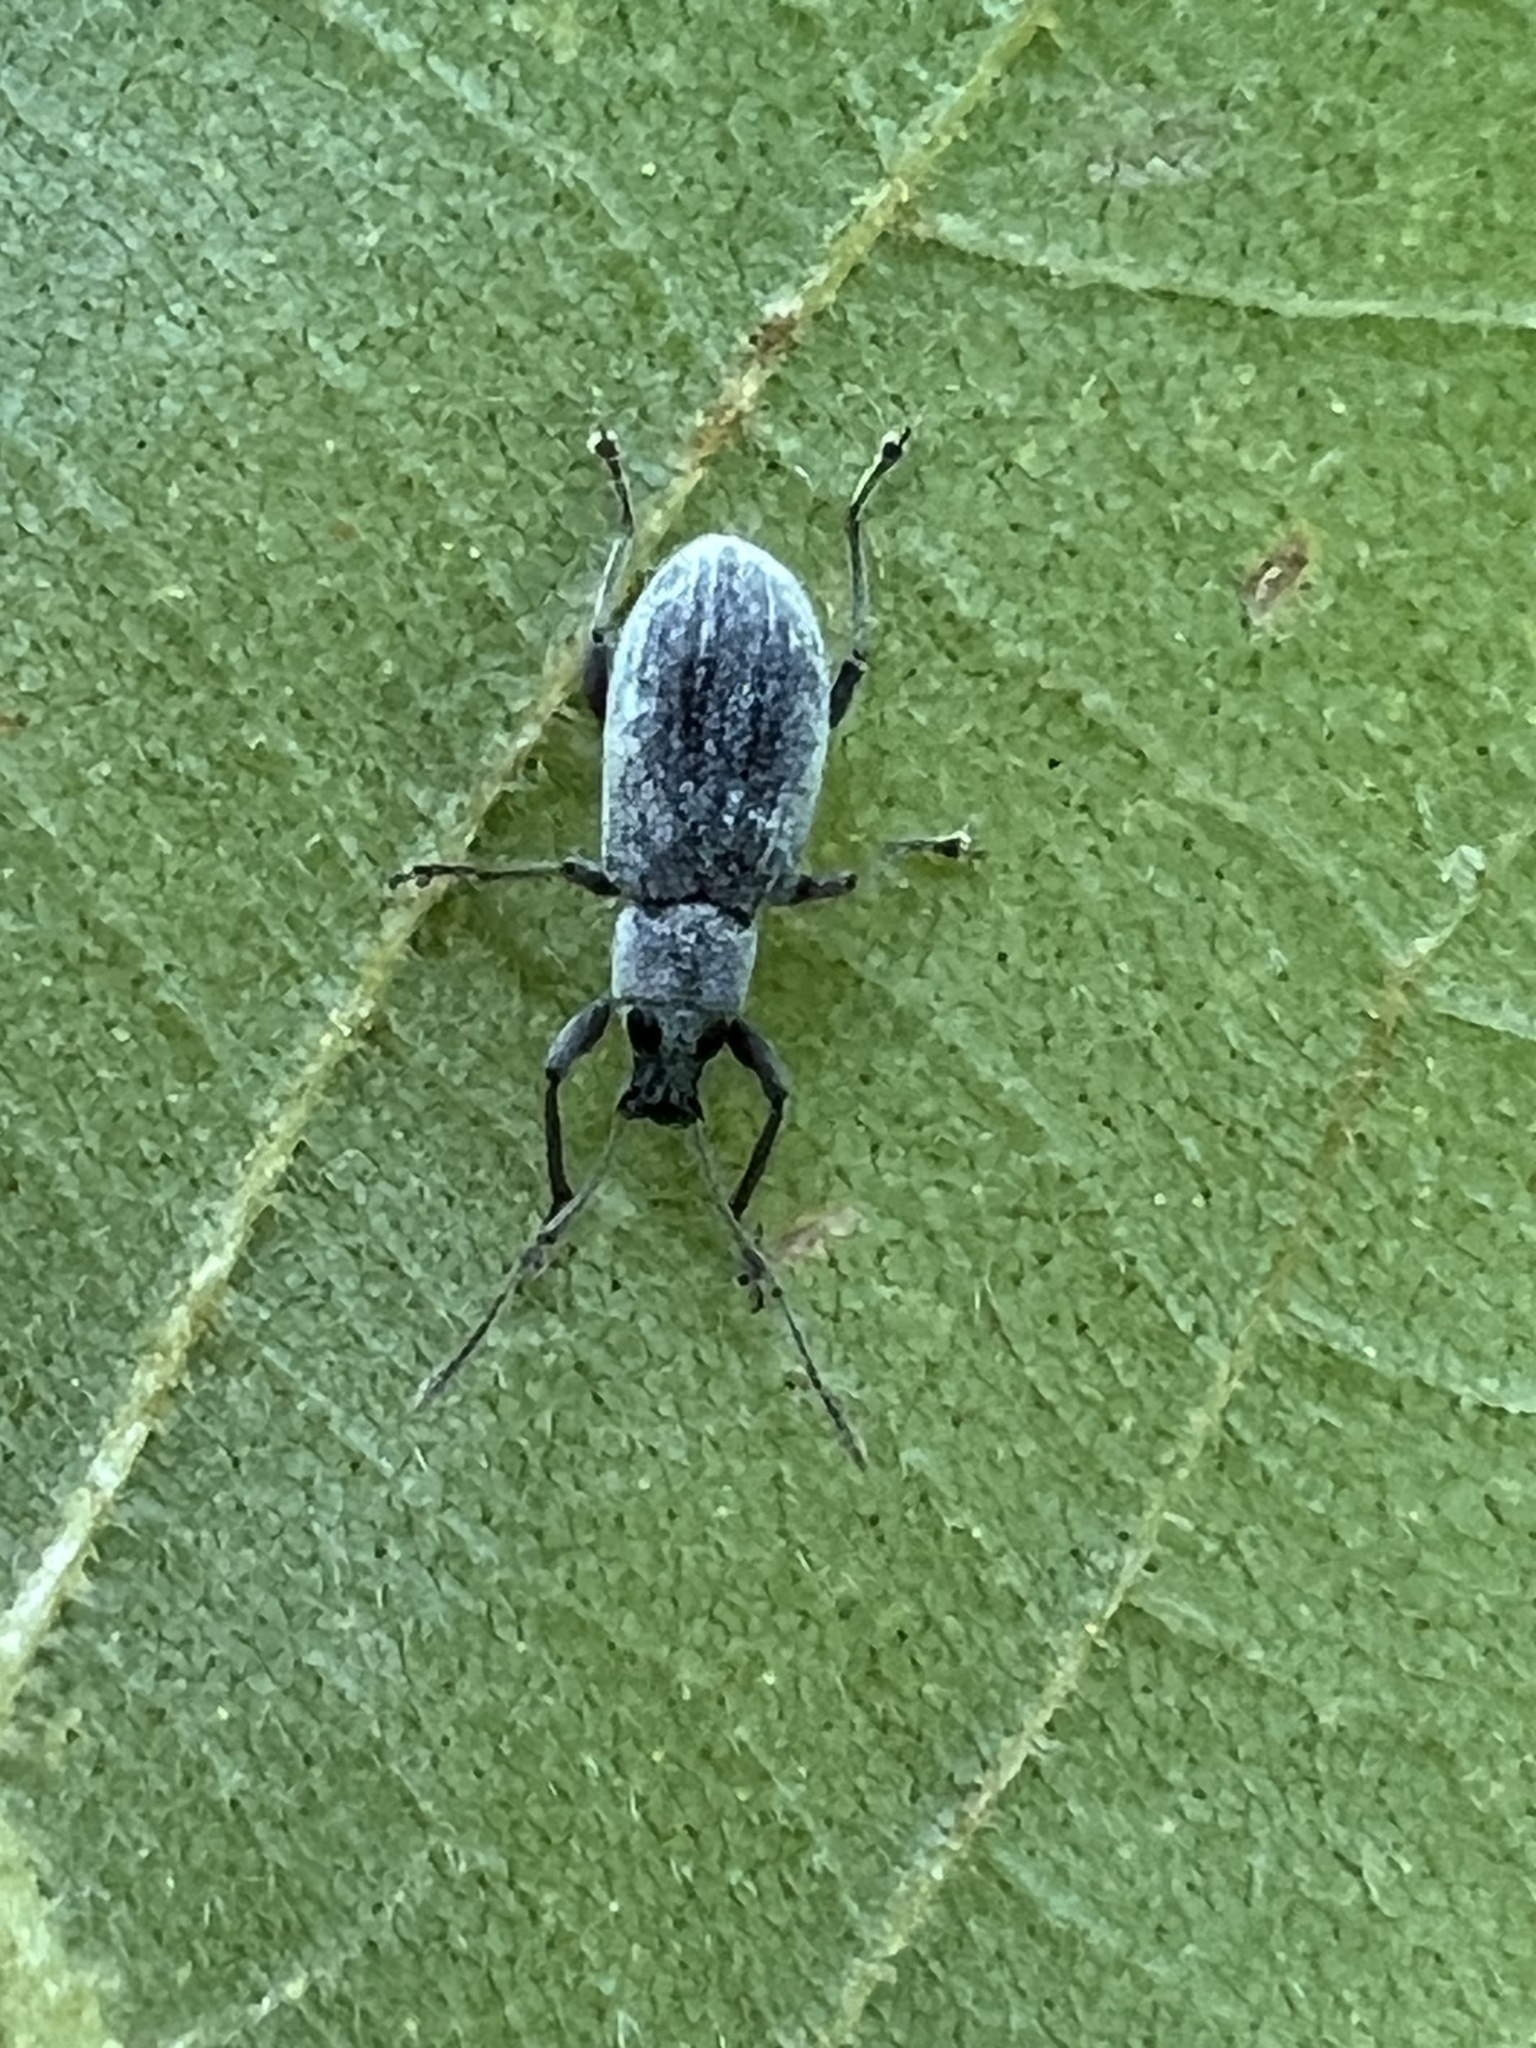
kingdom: Animalia
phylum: Arthropoda
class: Insecta
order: Coleoptera
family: Curculionidae
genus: Cyrtepistomus
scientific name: Cyrtepistomus castaneus
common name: Weevil
